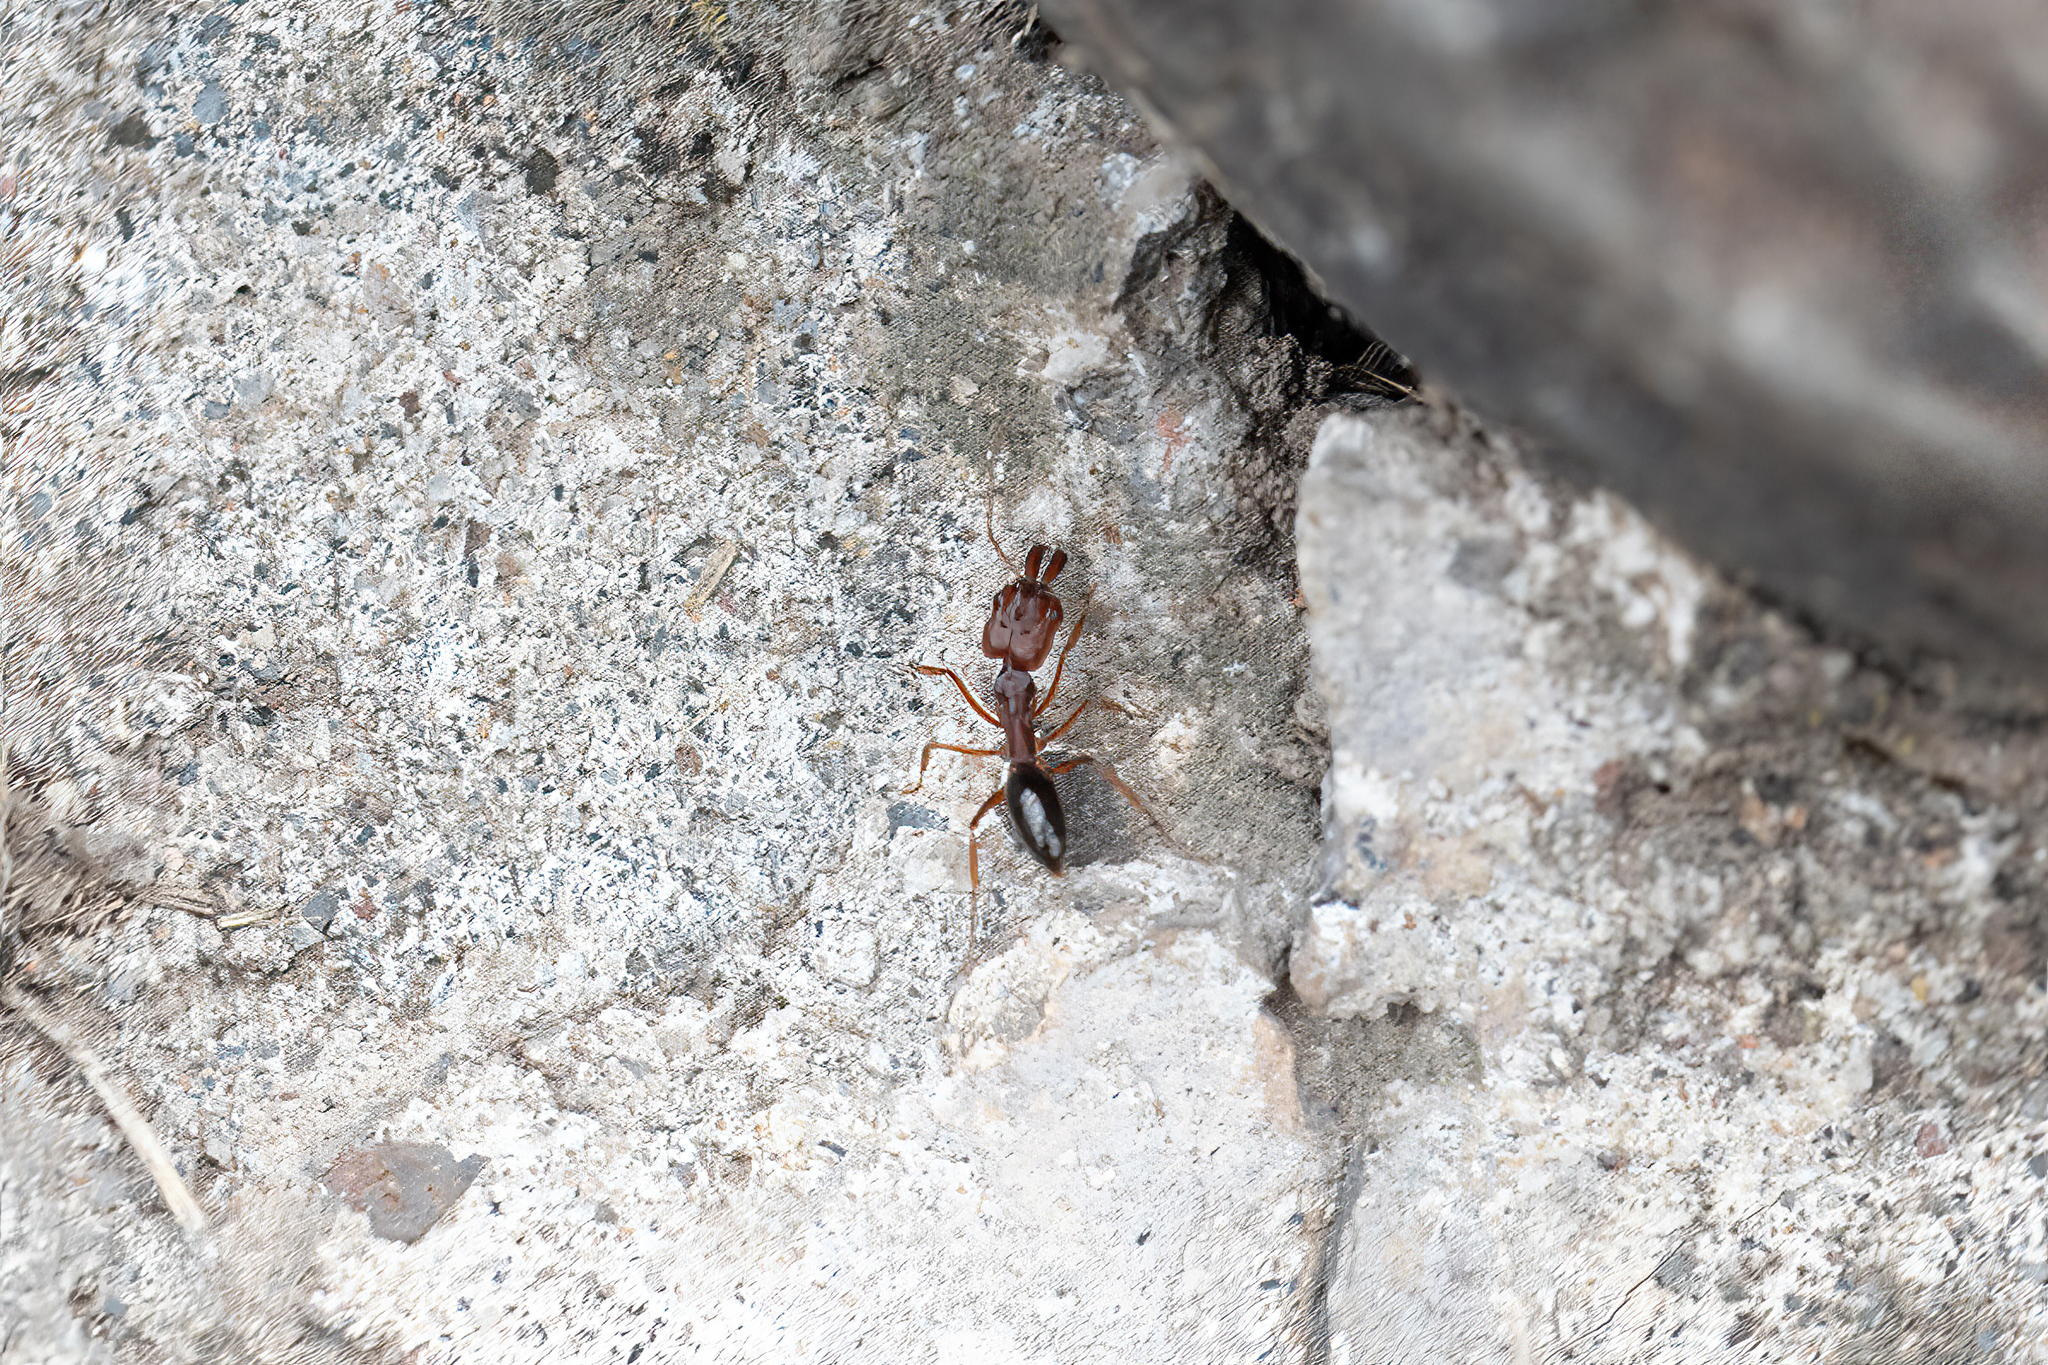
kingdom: Animalia
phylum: Arthropoda
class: Insecta
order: Hymenoptera
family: Formicidae
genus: Odontomachus
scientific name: Odontomachus clarus
